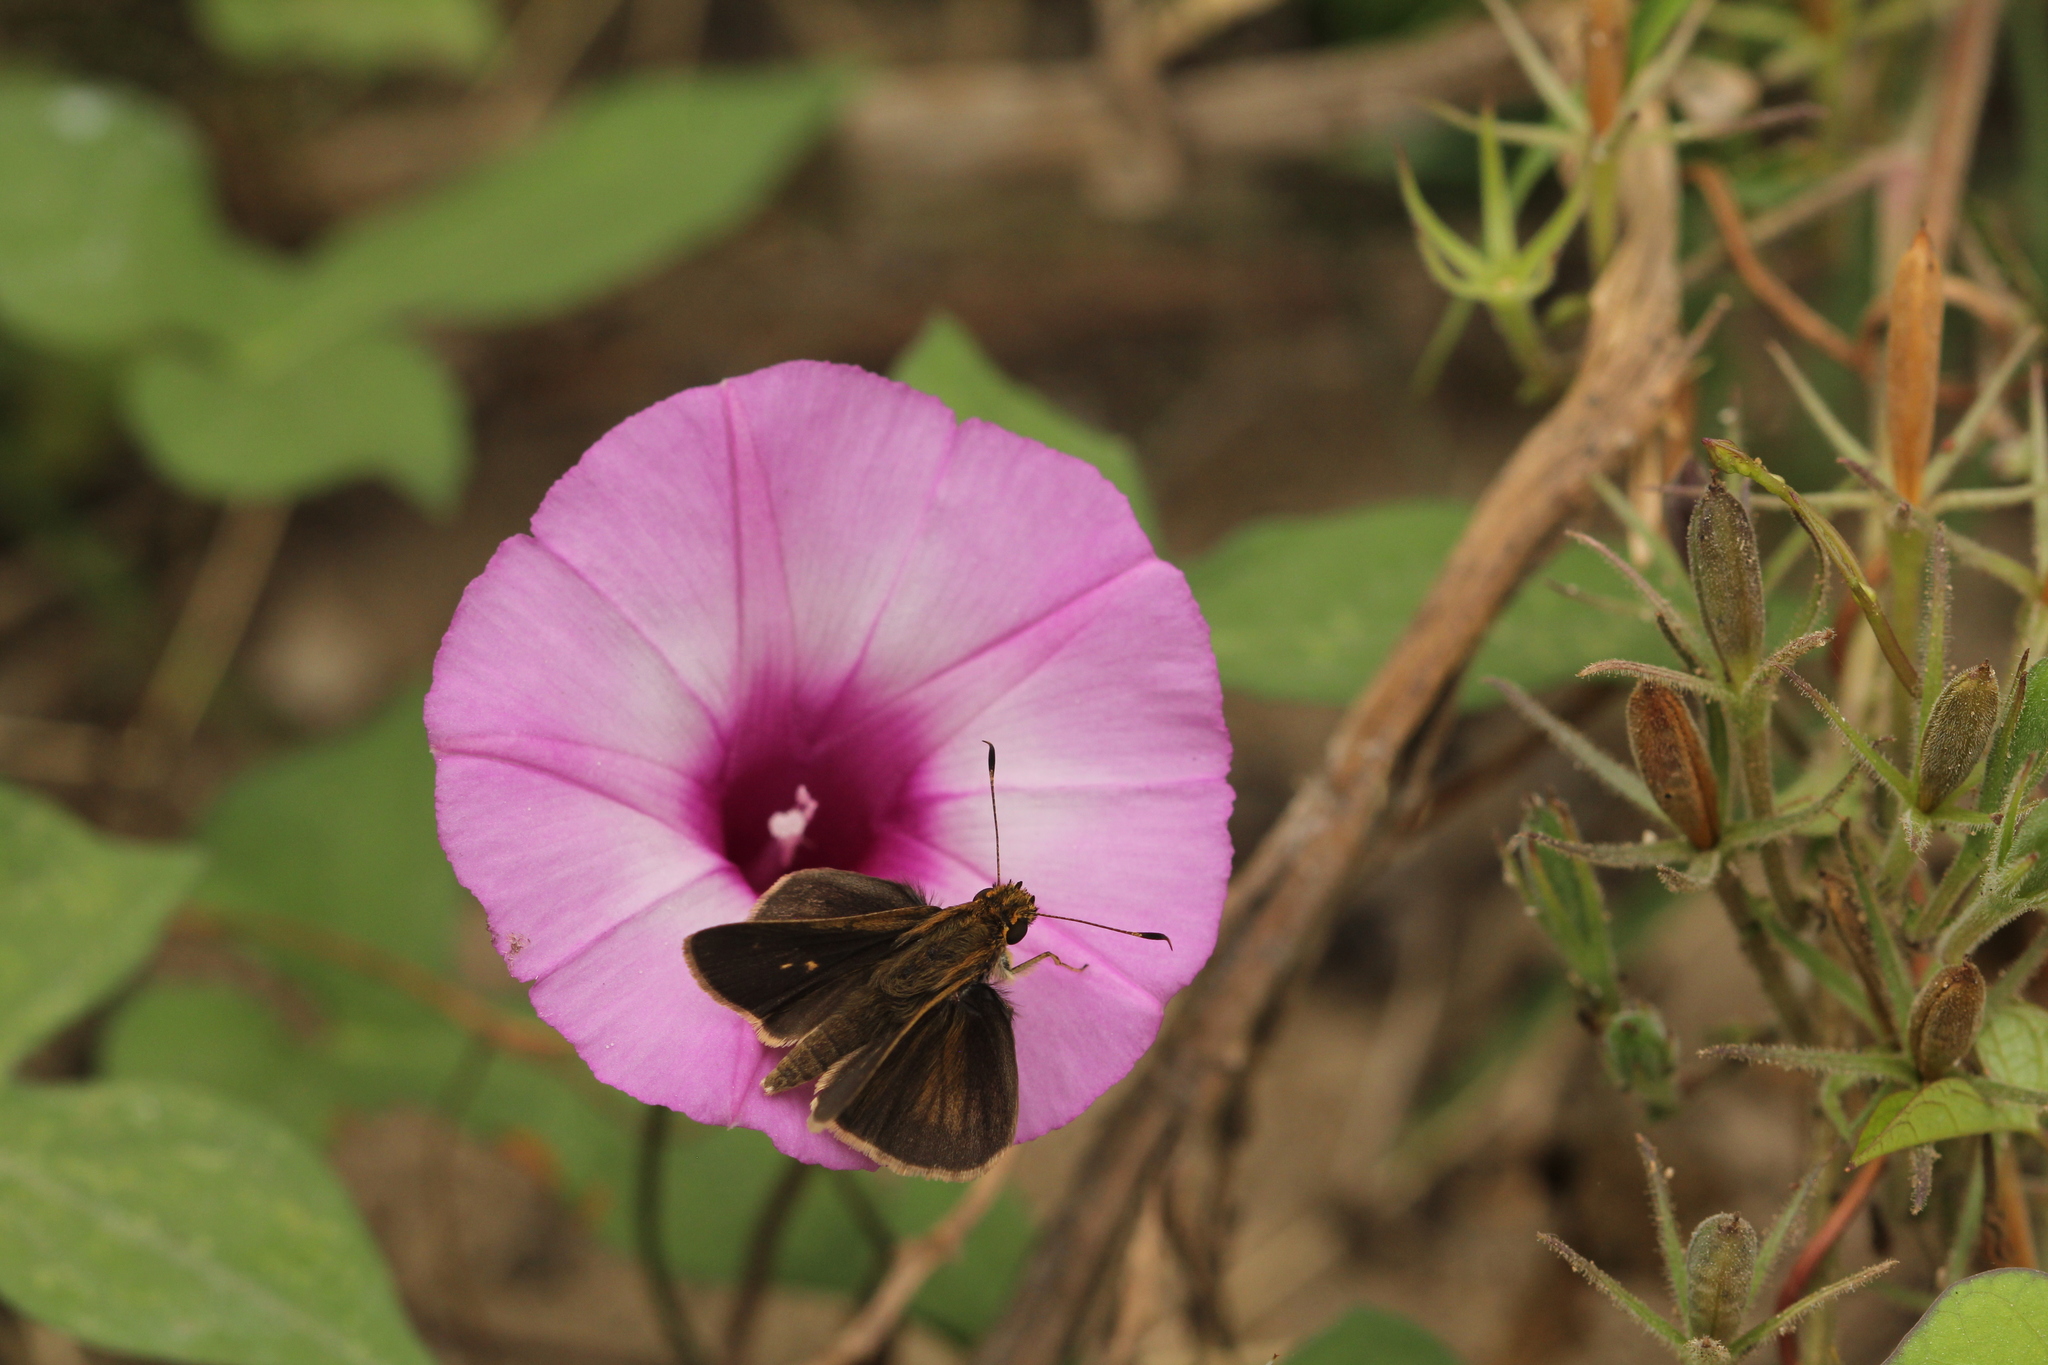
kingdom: Animalia
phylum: Arthropoda
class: Insecta
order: Lepidoptera
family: Hesperiidae
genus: Lerodea
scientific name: Lerodea eufala
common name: Eufala skipper
